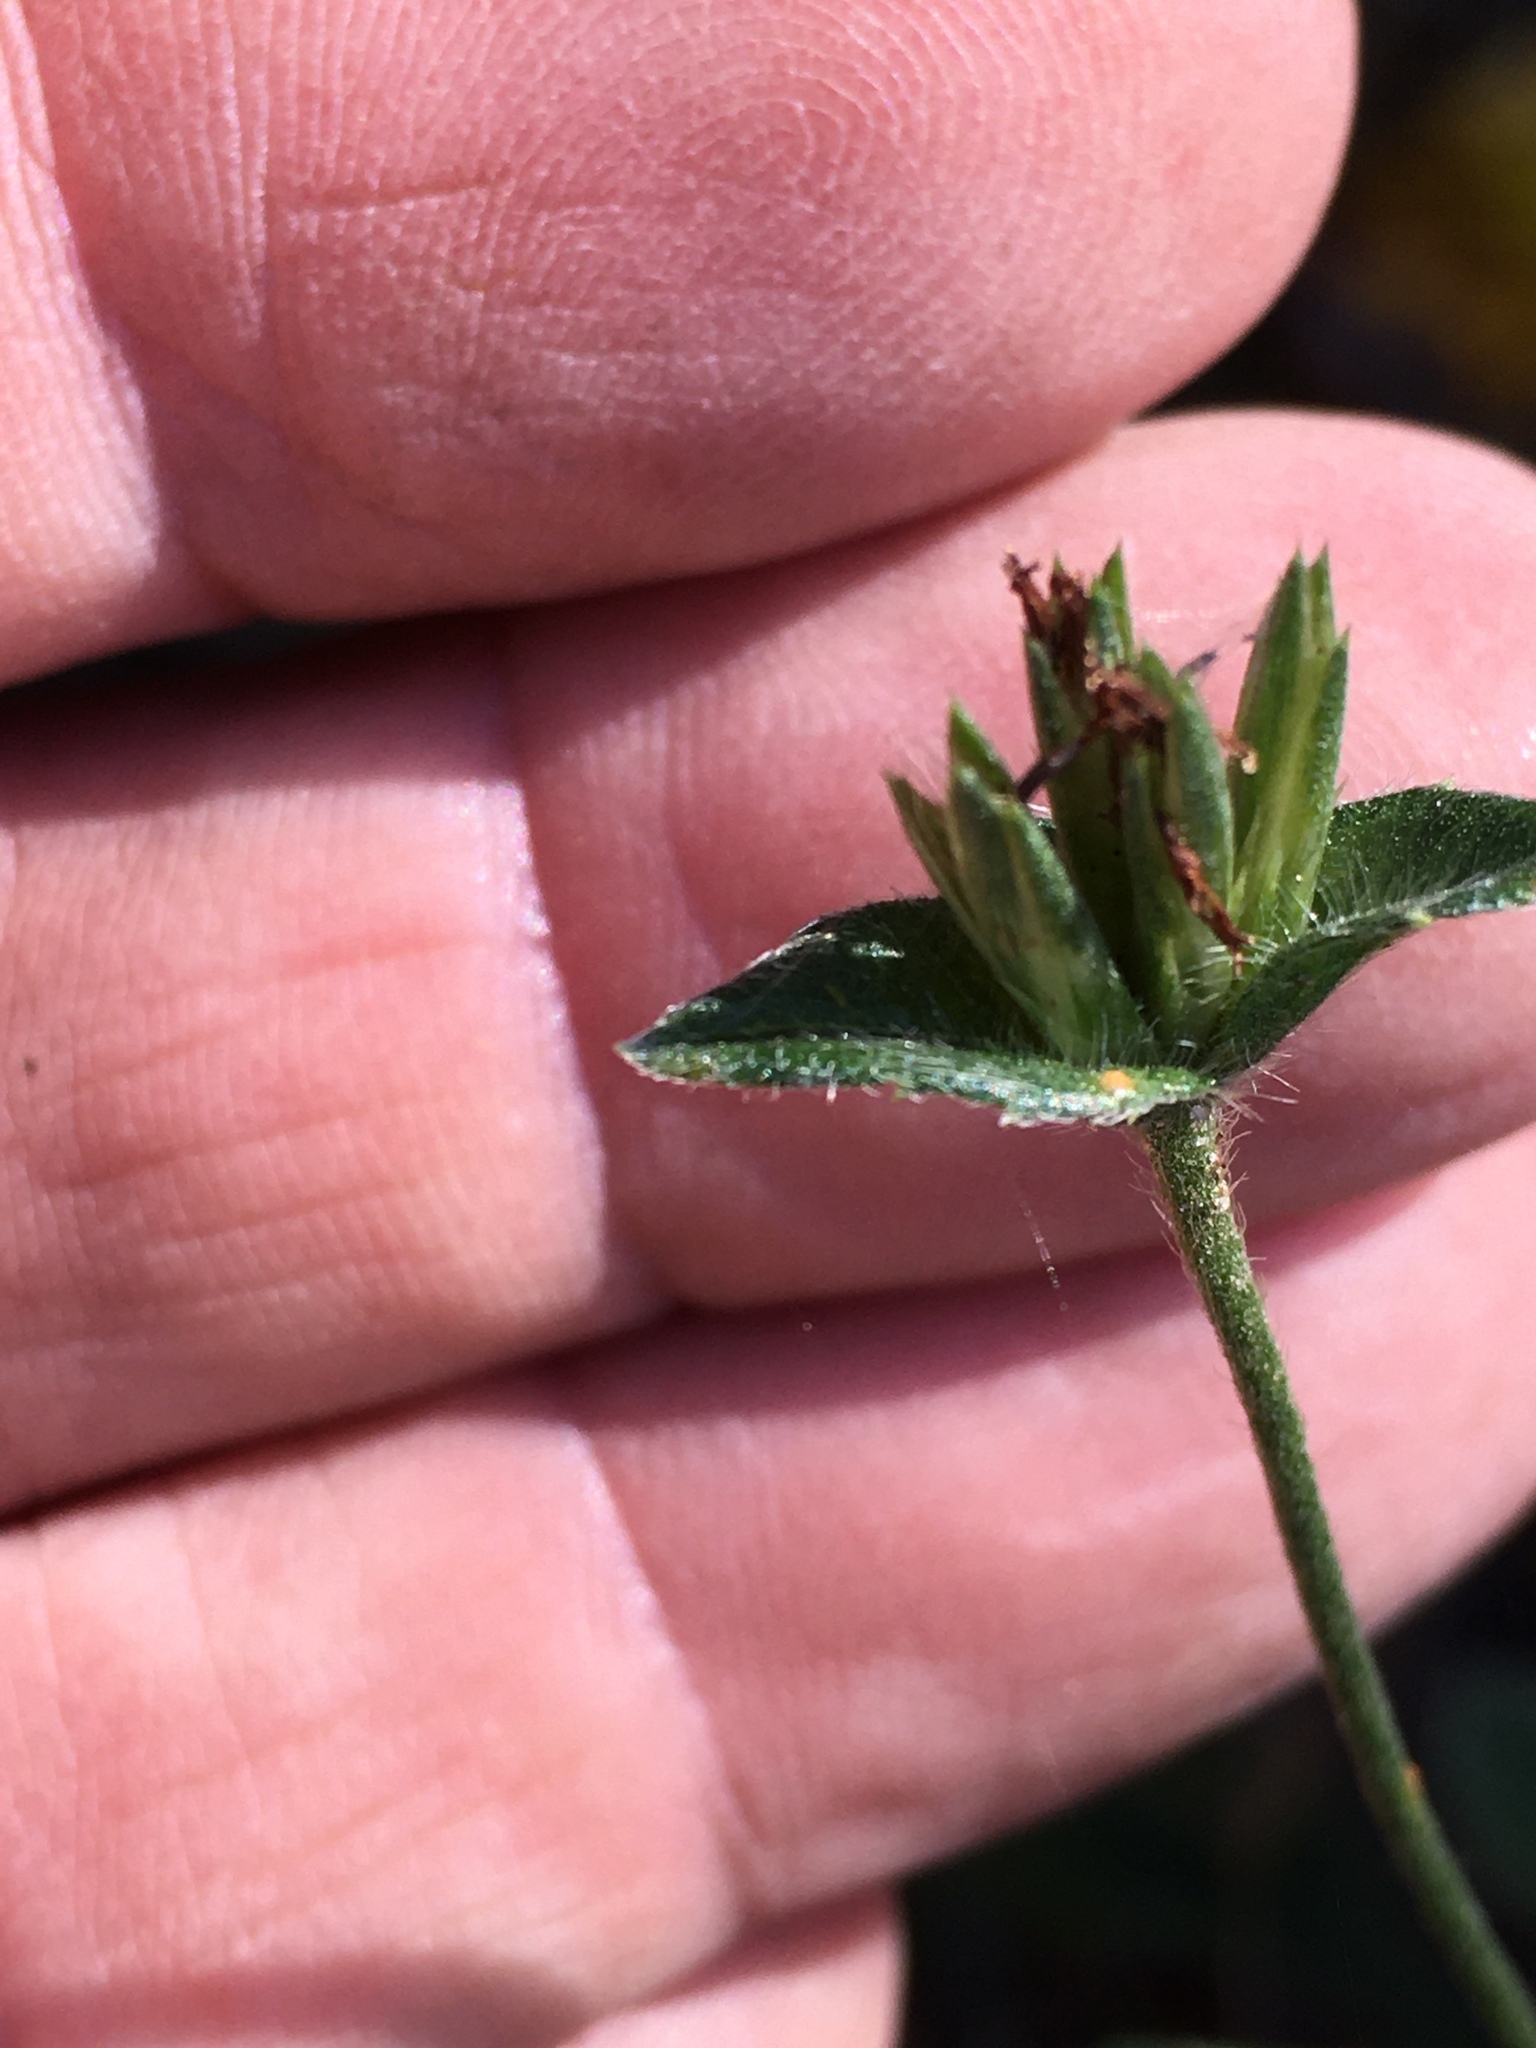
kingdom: Plantae
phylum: Tracheophyta
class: Magnoliopsida
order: Asterales
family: Asteraceae
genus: Elephantopus
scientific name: Elephantopus carolinianus
